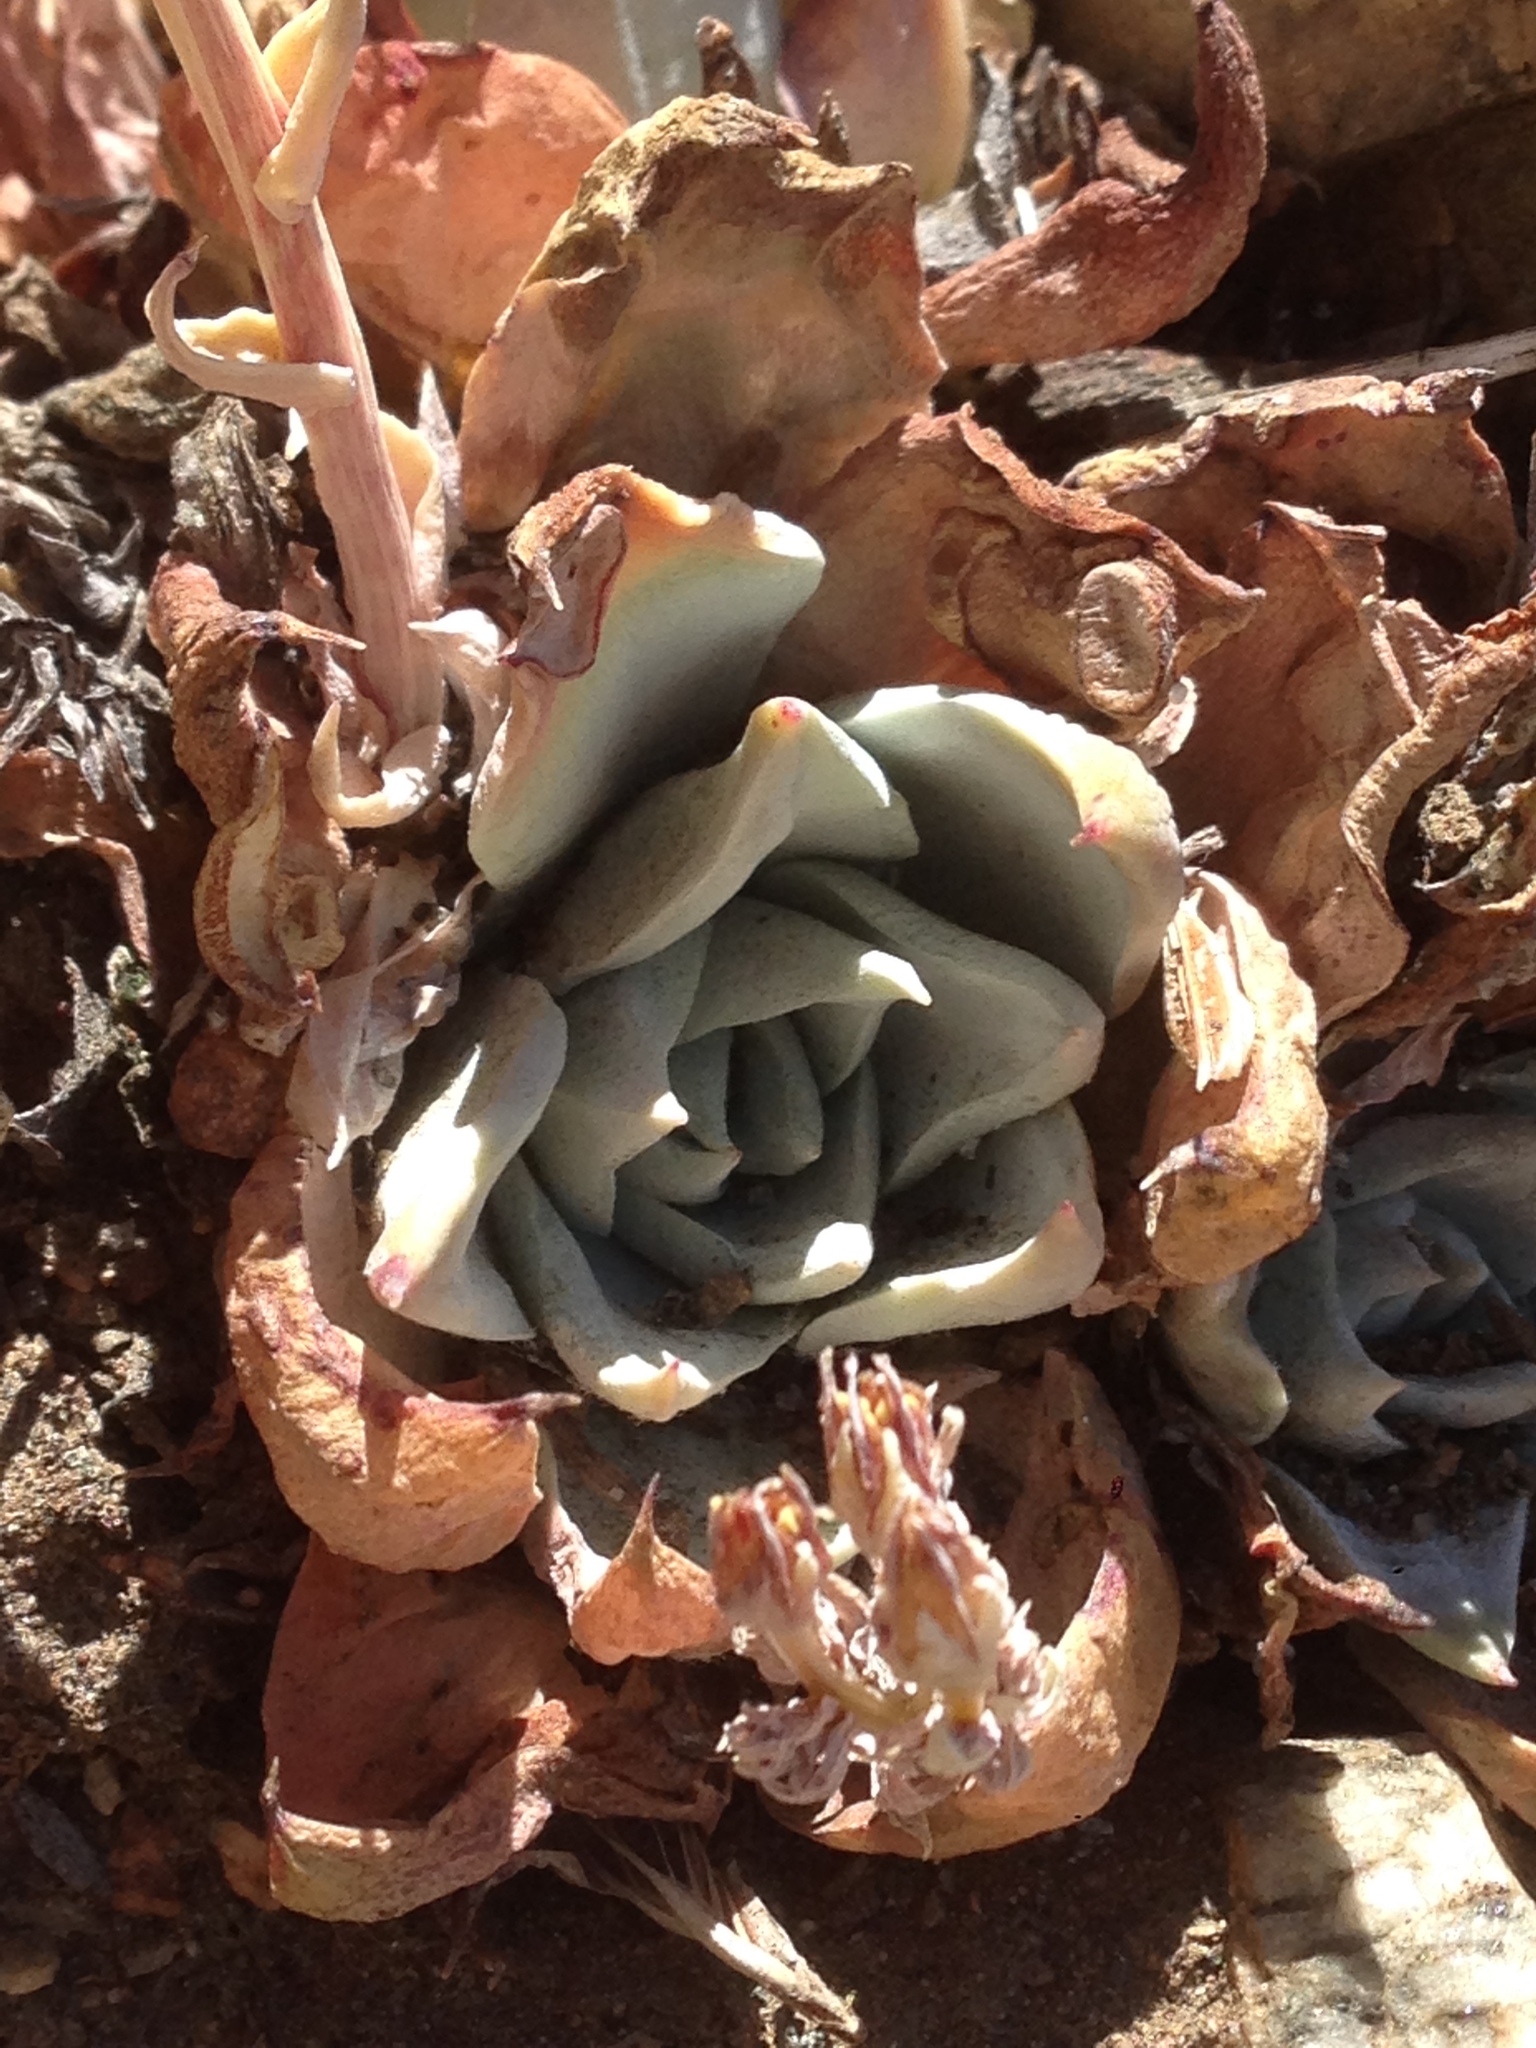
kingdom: Plantae
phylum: Tracheophyta
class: Magnoliopsida
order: Saxifragales
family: Crassulaceae
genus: Dudleya
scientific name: Dudleya cymosa
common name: Canyon dudleya
